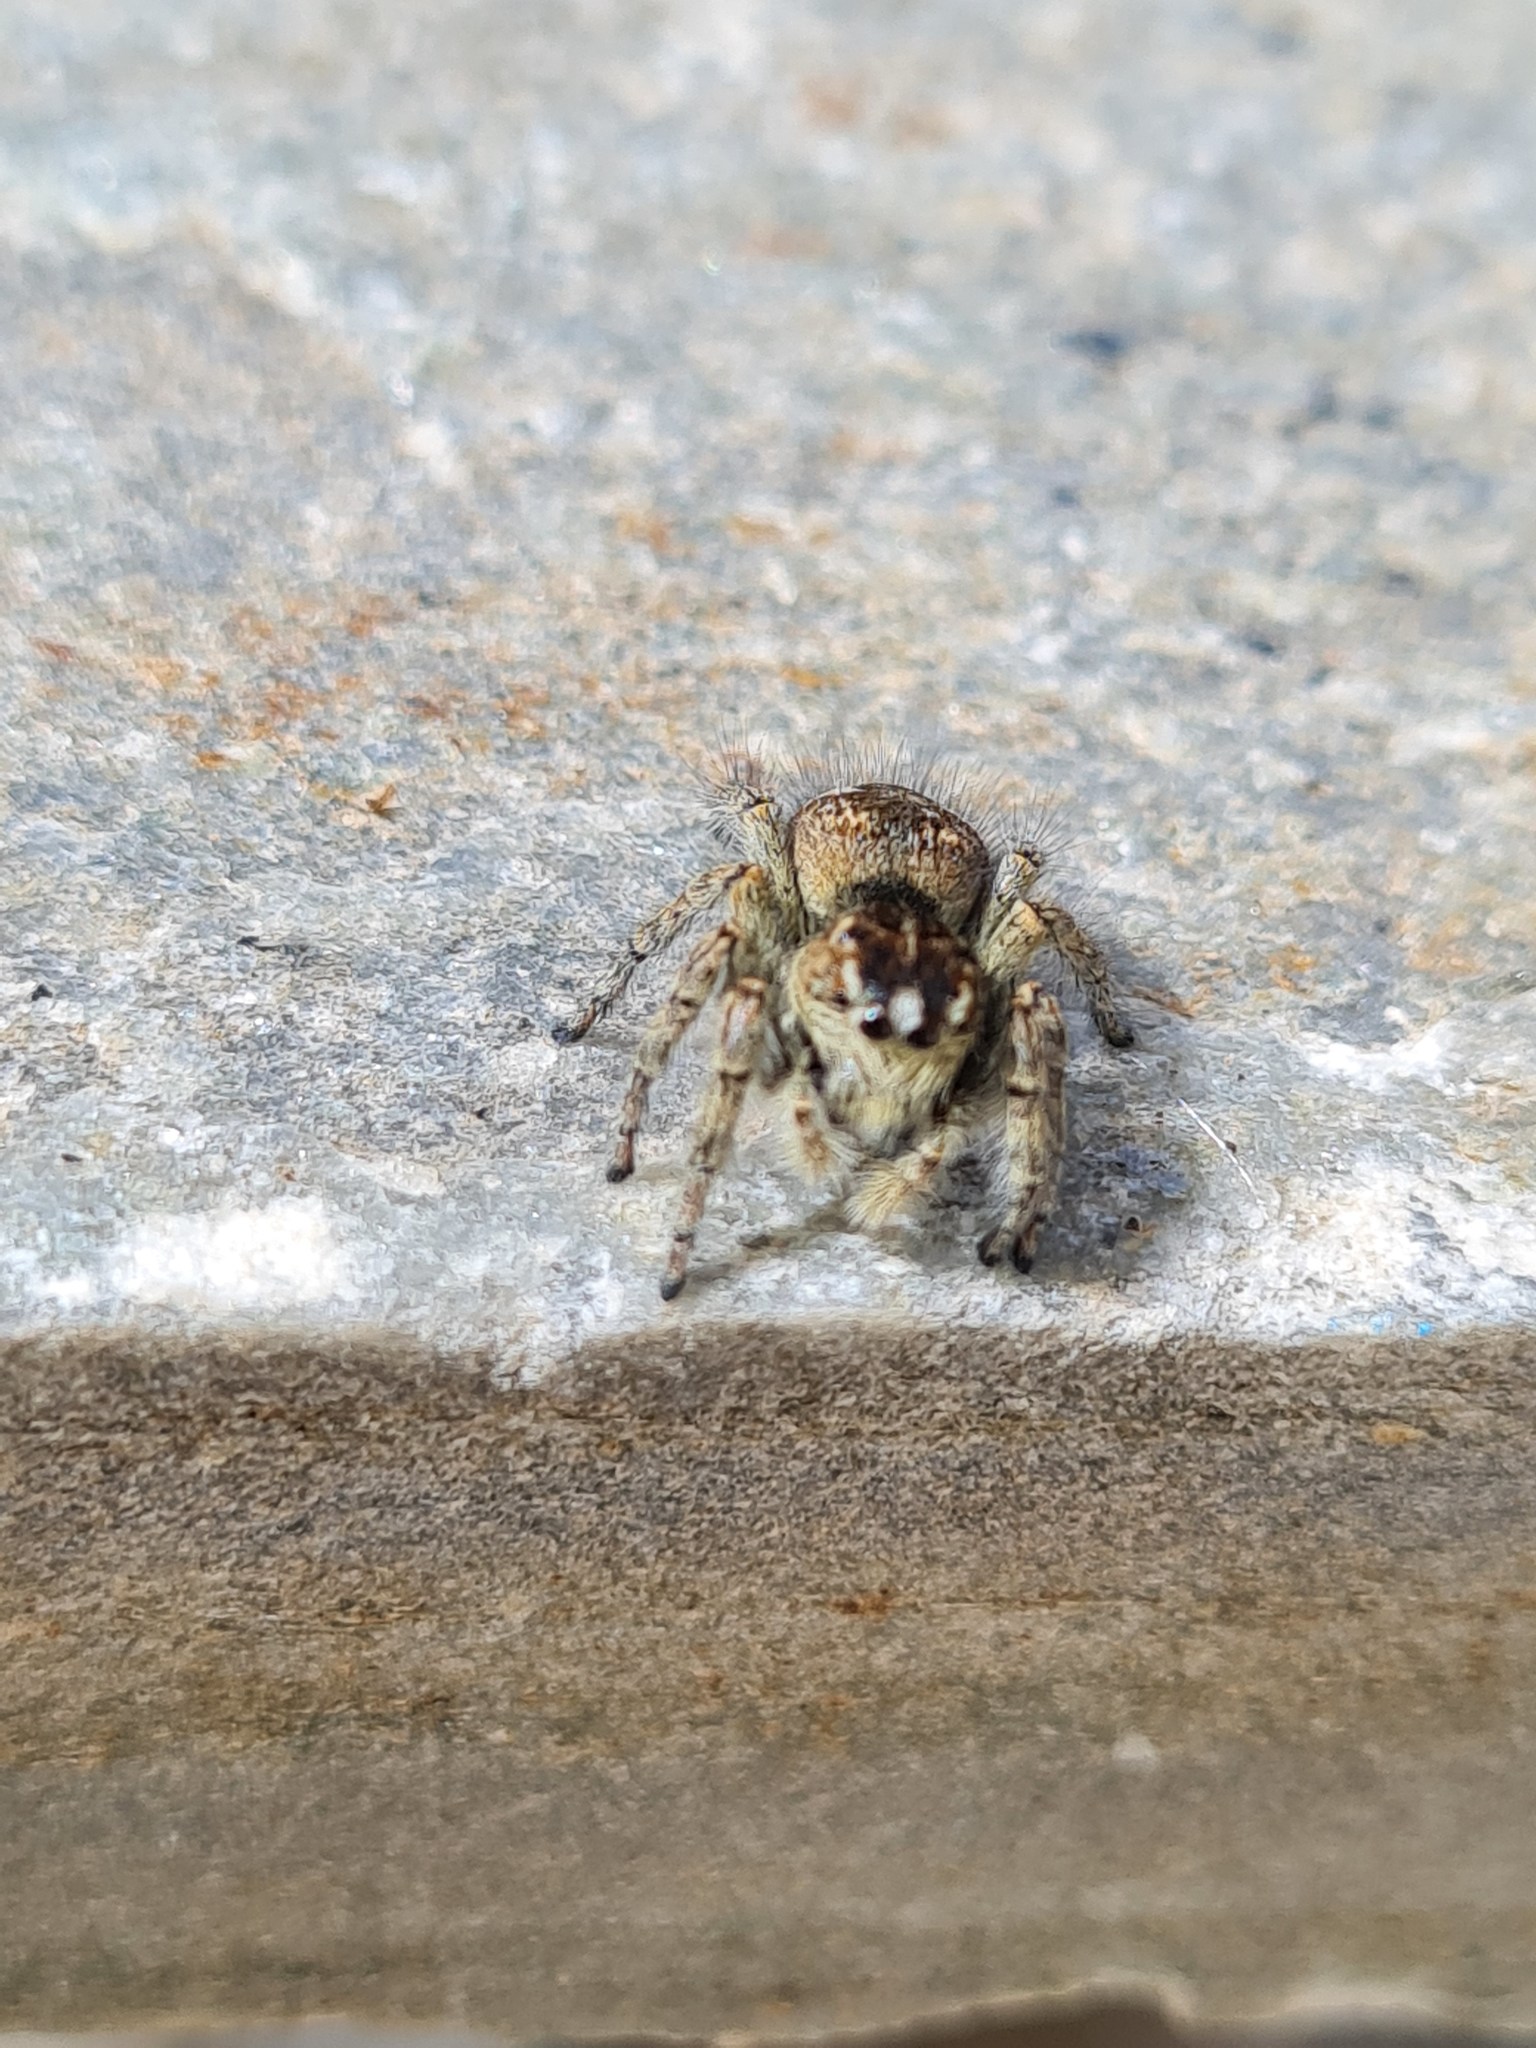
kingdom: Animalia
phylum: Arthropoda
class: Arachnida
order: Araneae
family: Salticidae
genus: Philaeus
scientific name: Philaeus chrysops
